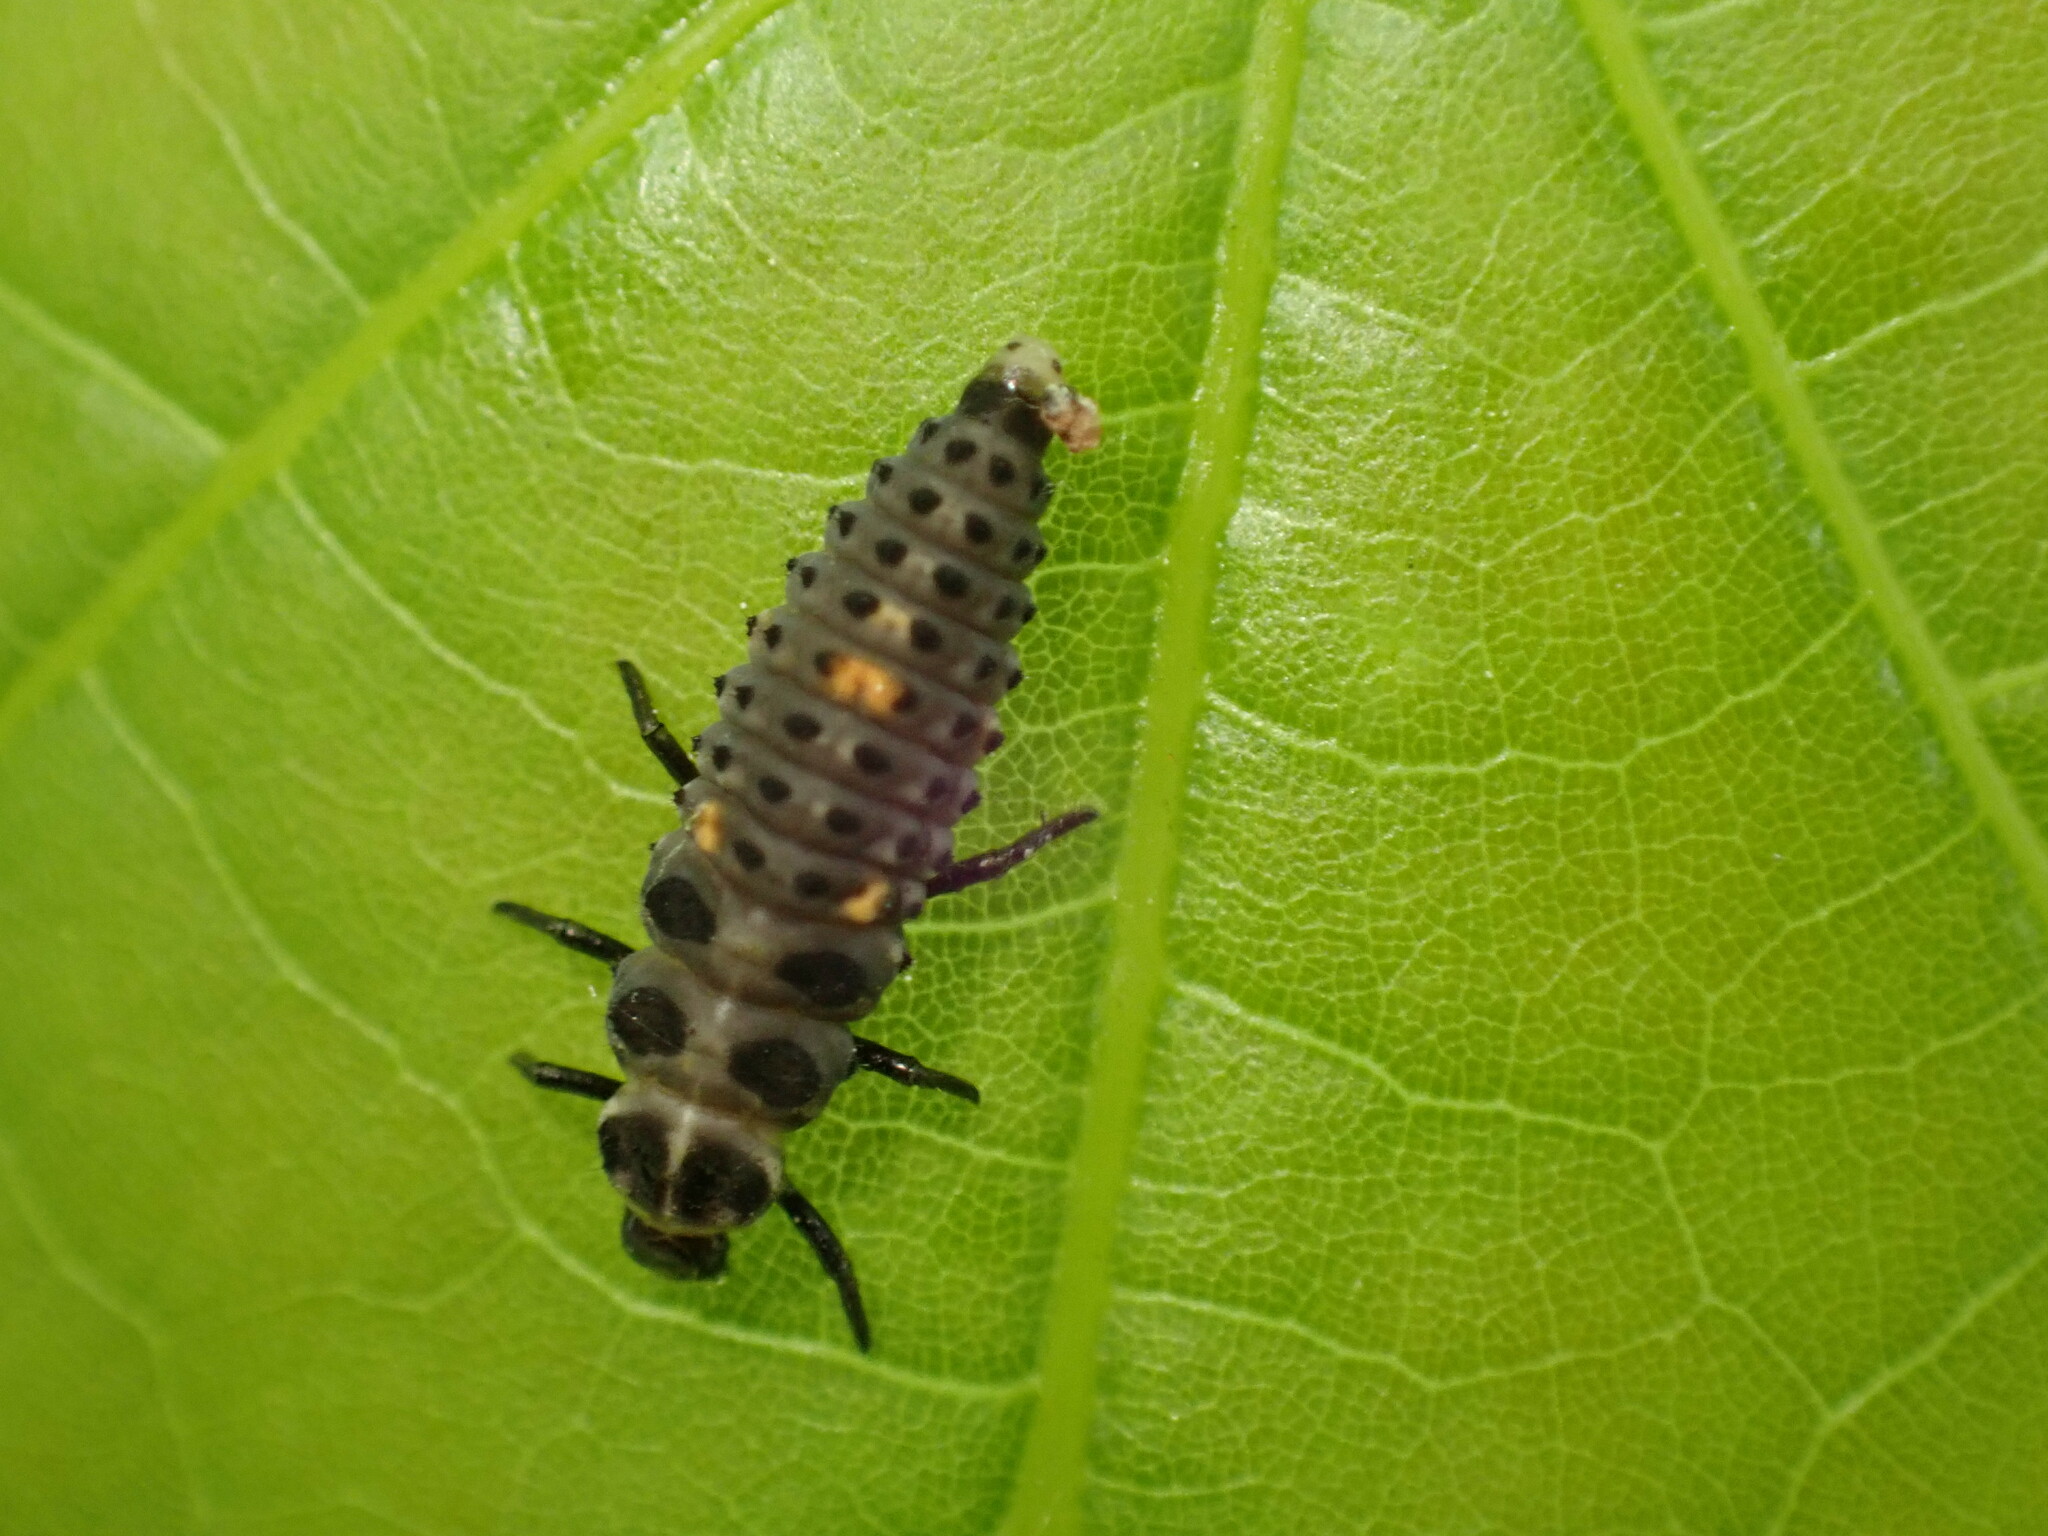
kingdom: Animalia
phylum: Arthropoda
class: Insecta
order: Coleoptera
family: Coccinellidae
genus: Adalia
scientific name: Adalia bipunctata
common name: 2-spot ladybird
